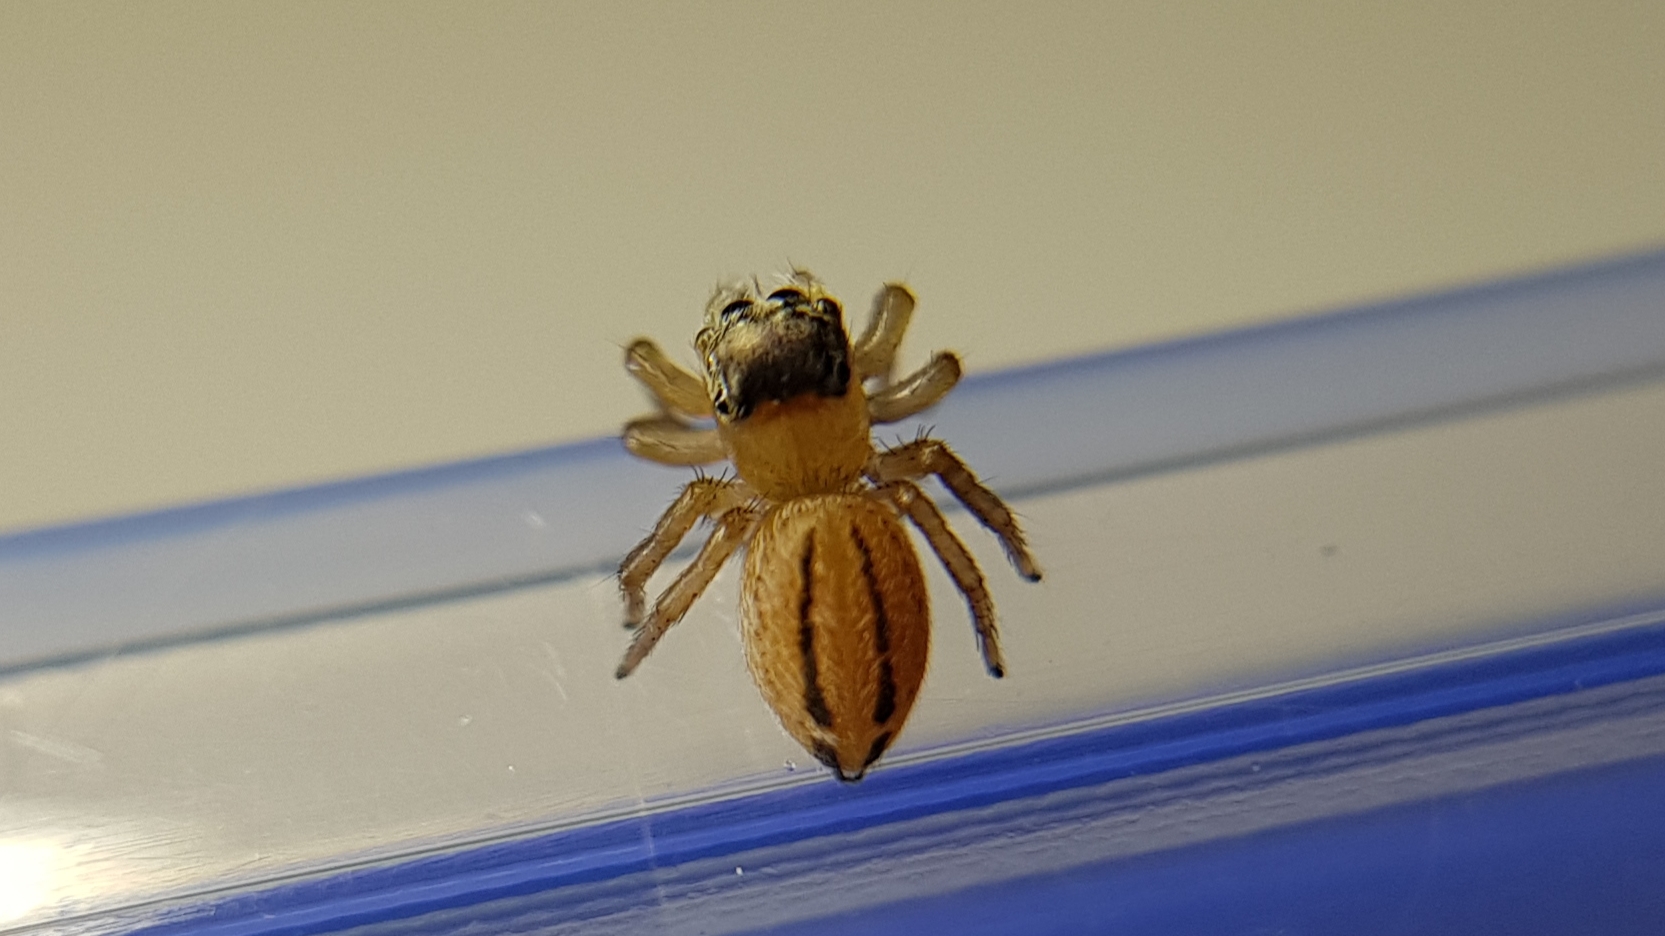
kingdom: Animalia
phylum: Arthropoda
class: Arachnida
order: Araneae
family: Salticidae
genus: Maratus
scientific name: Maratus scutulatus
